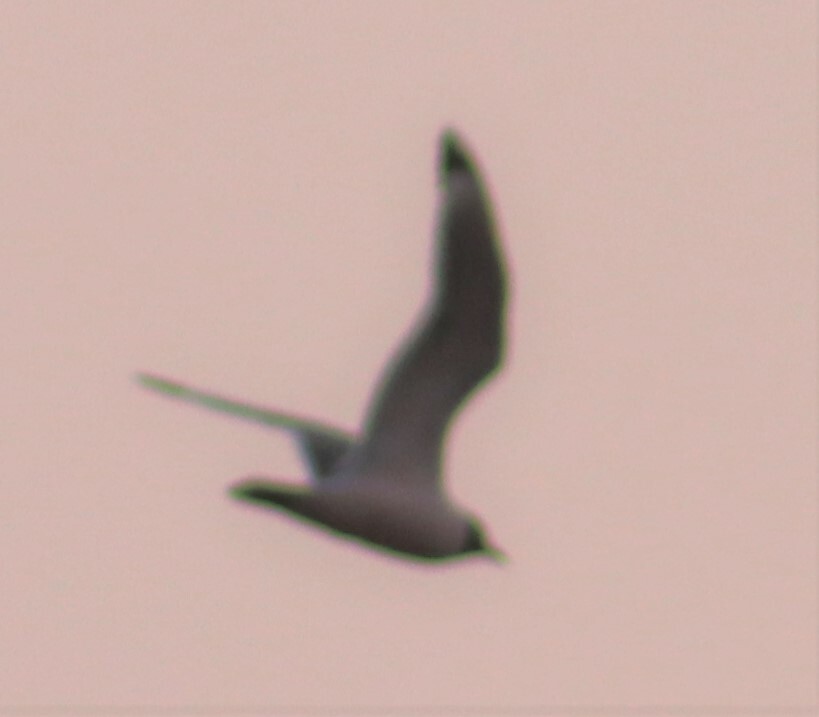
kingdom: Animalia
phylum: Chordata
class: Aves
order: Charadriiformes
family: Laridae
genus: Leucophaeus
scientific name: Leucophaeus pipixcan
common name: Franklin's gull
